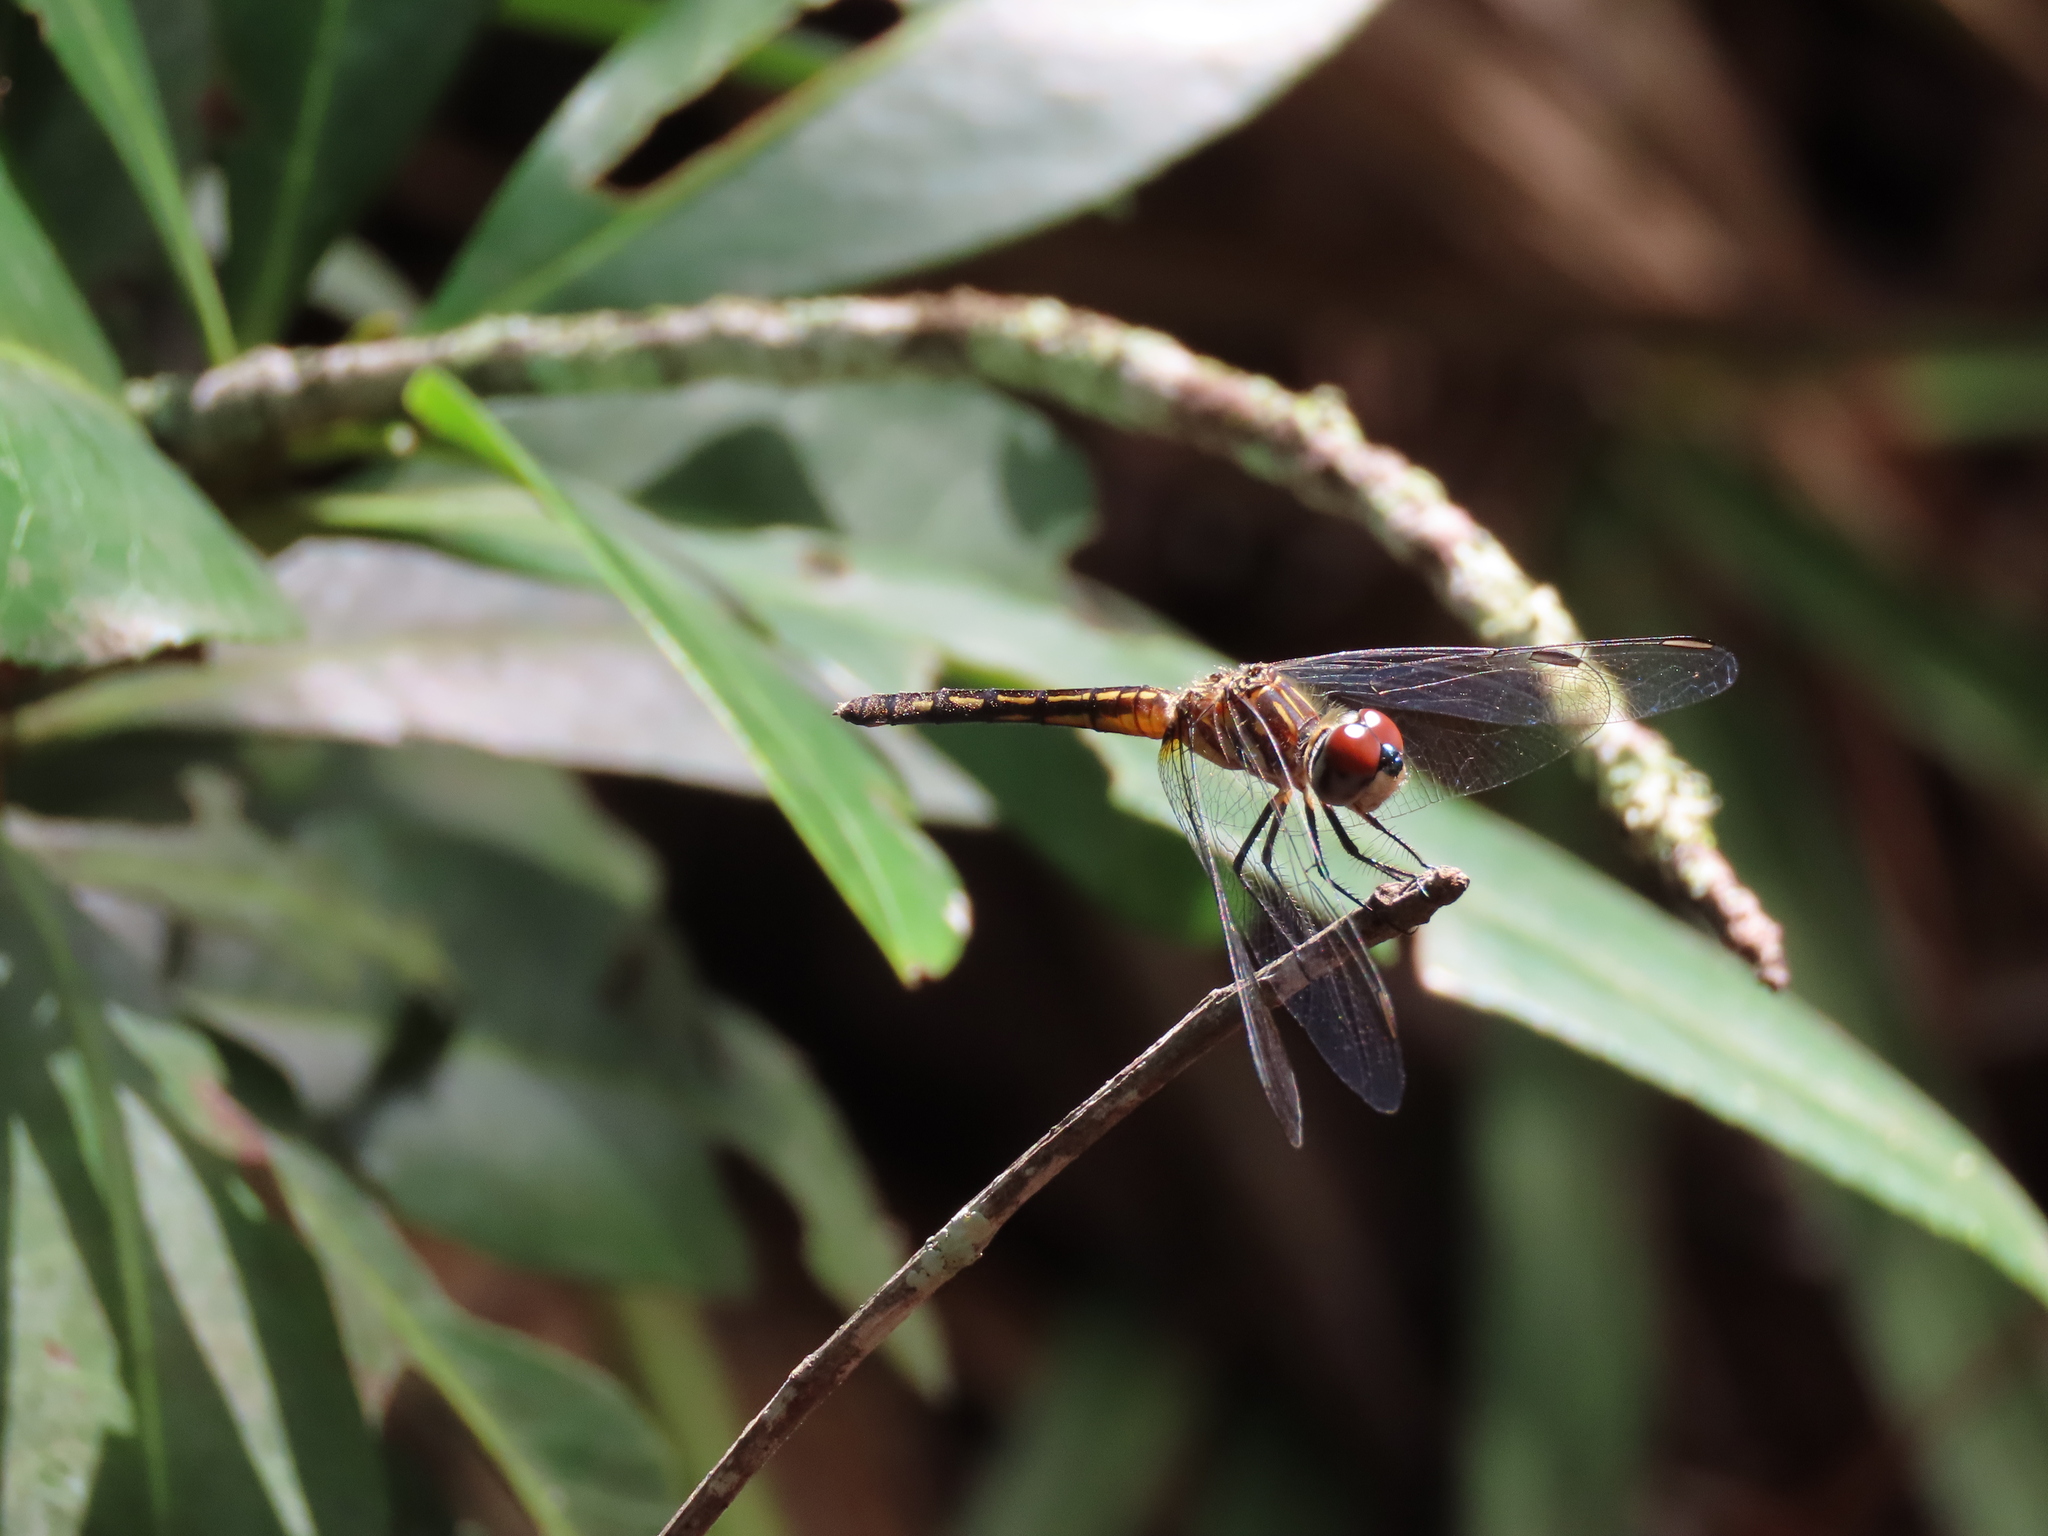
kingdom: Animalia
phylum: Arthropoda
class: Insecta
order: Odonata
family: Libellulidae
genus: Pachydiplax
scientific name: Pachydiplax longipennis
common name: Blue dasher
